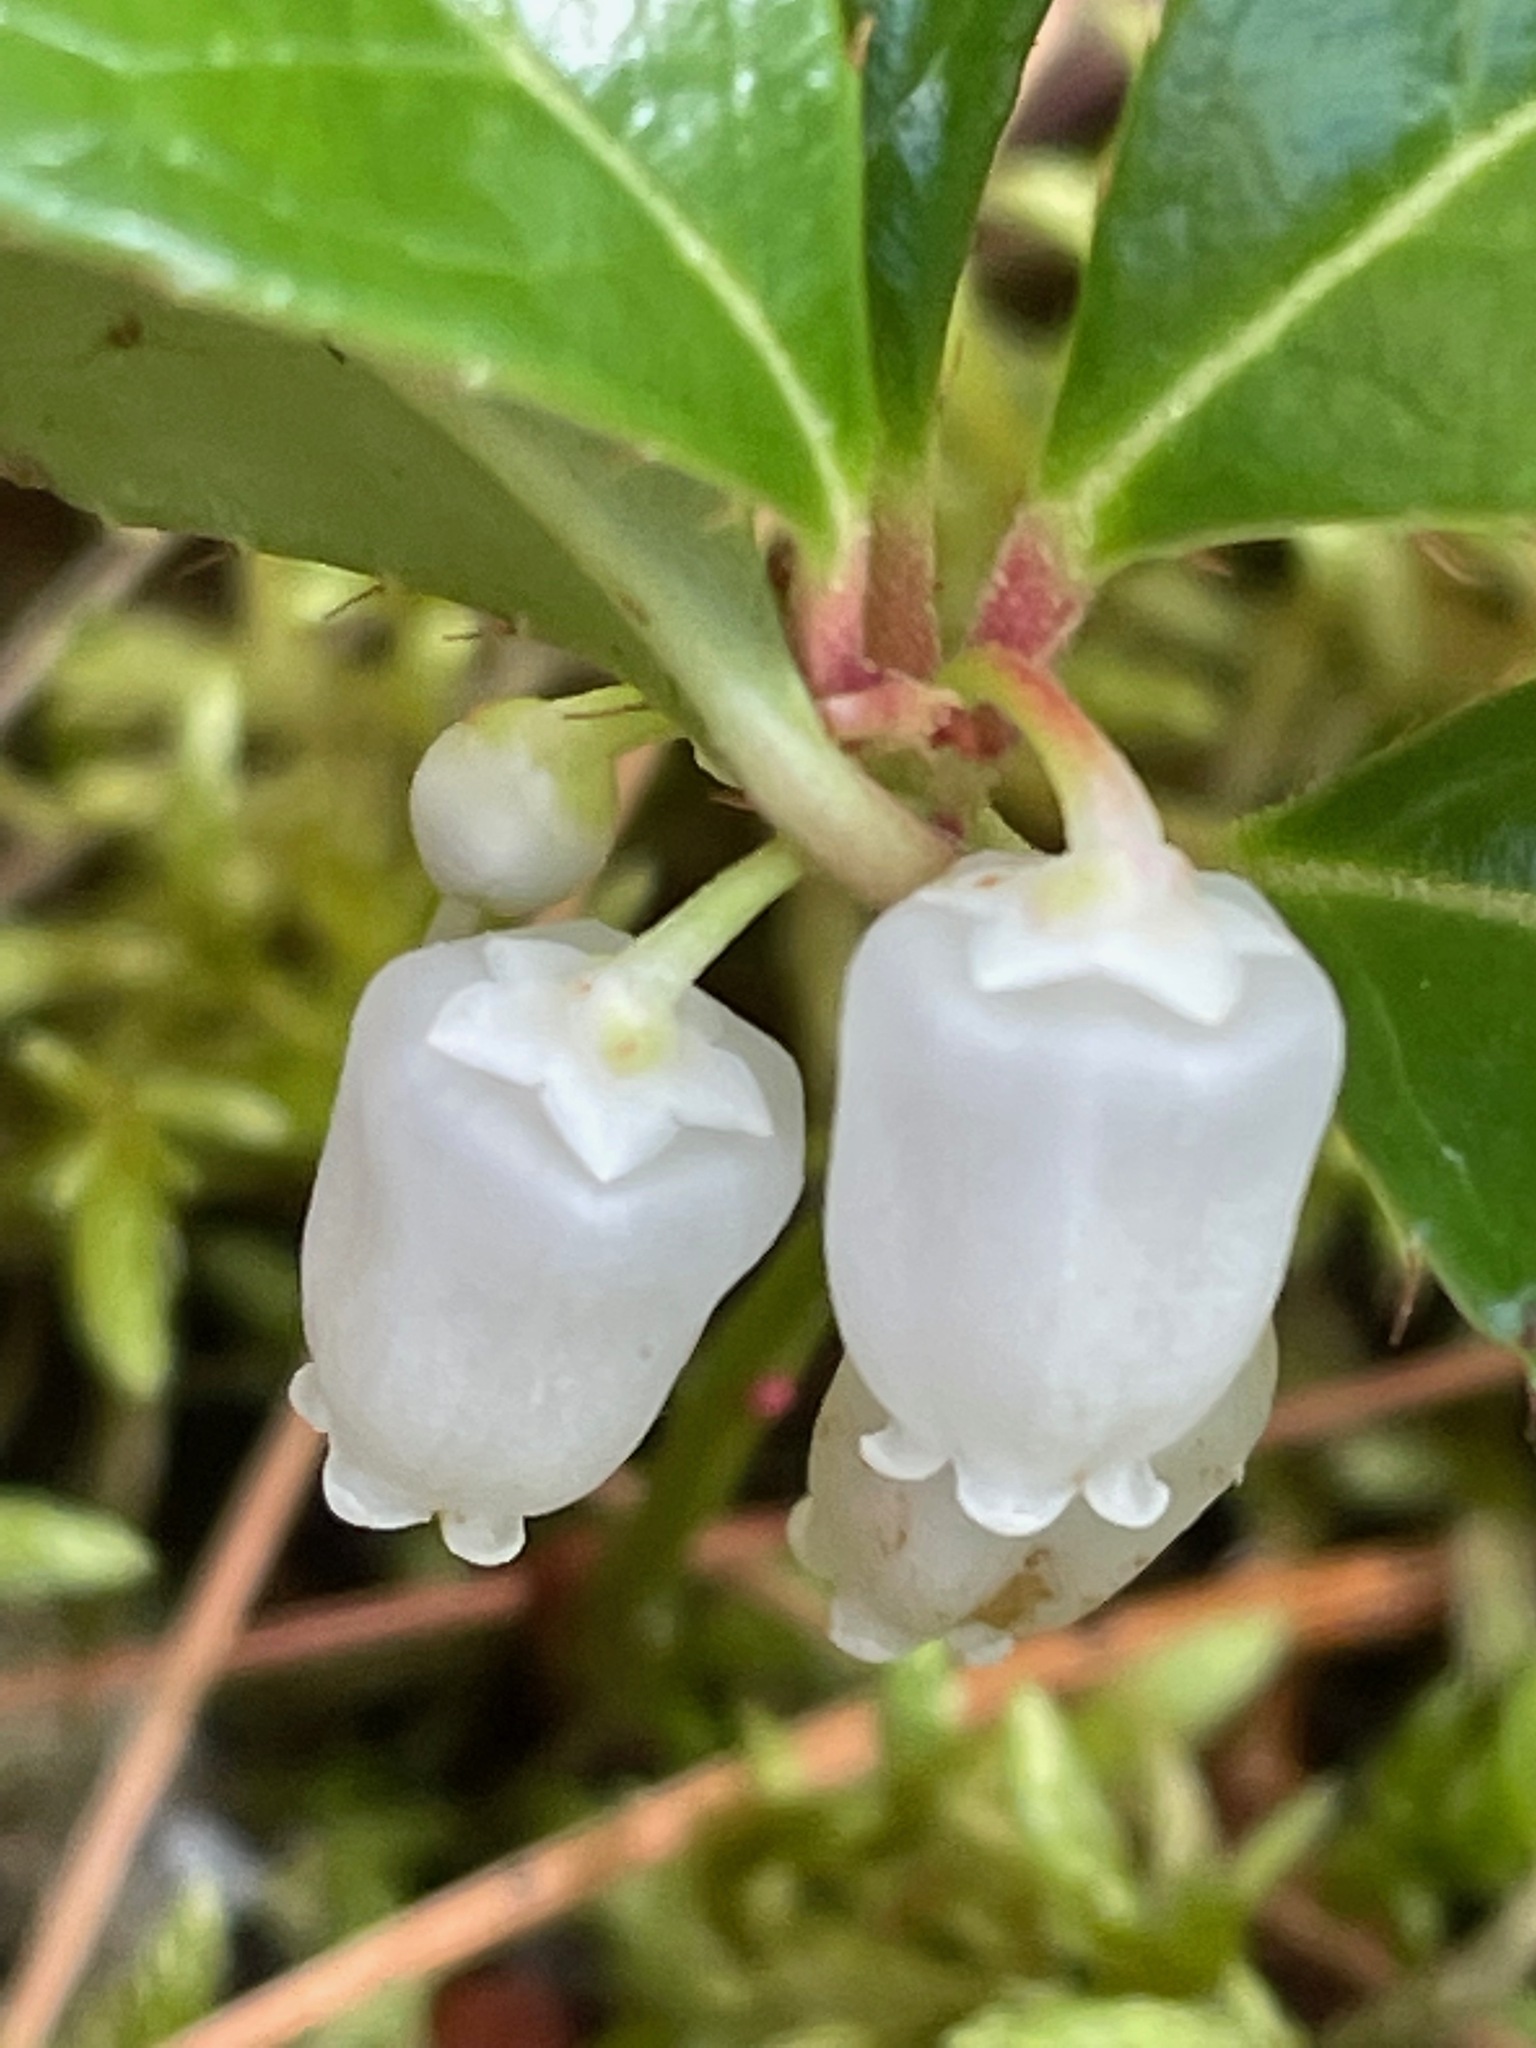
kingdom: Plantae
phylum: Tracheophyta
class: Magnoliopsida
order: Ericales
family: Ericaceae
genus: Gaultheria
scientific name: Gaultheria procumbens
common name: Checkerberry
